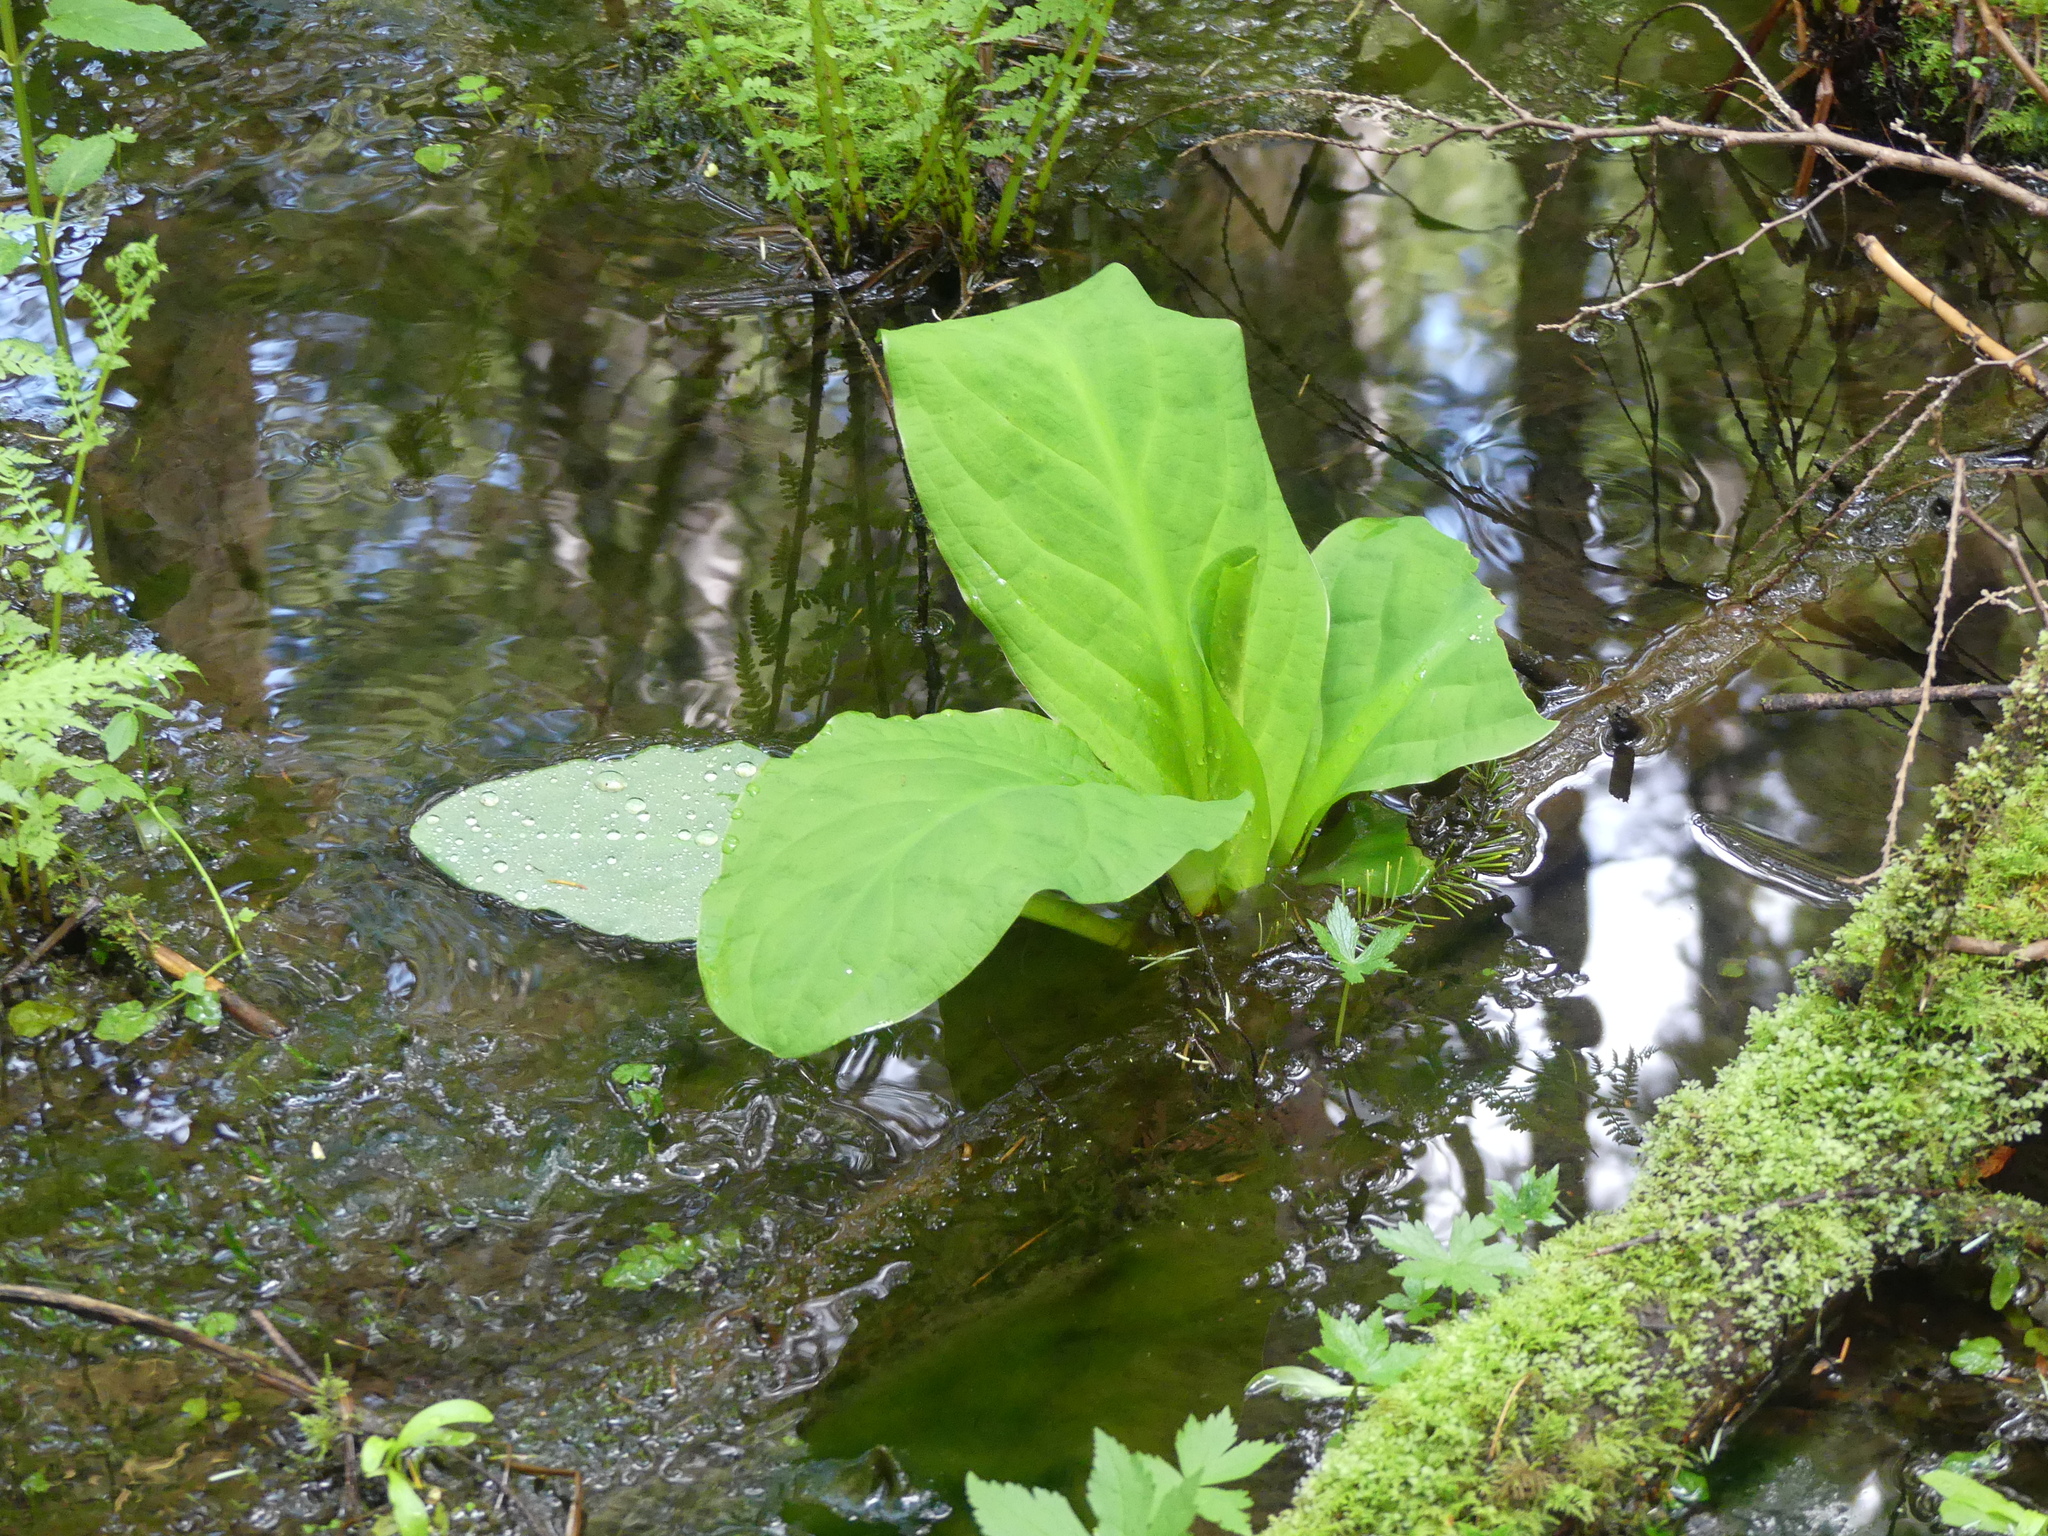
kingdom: Plantae
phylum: Tracheophyta
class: Liliopsida
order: Alismatales
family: Araceae
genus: Lysichiton
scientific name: Lysichiton americanus
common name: American skunk cabbage
